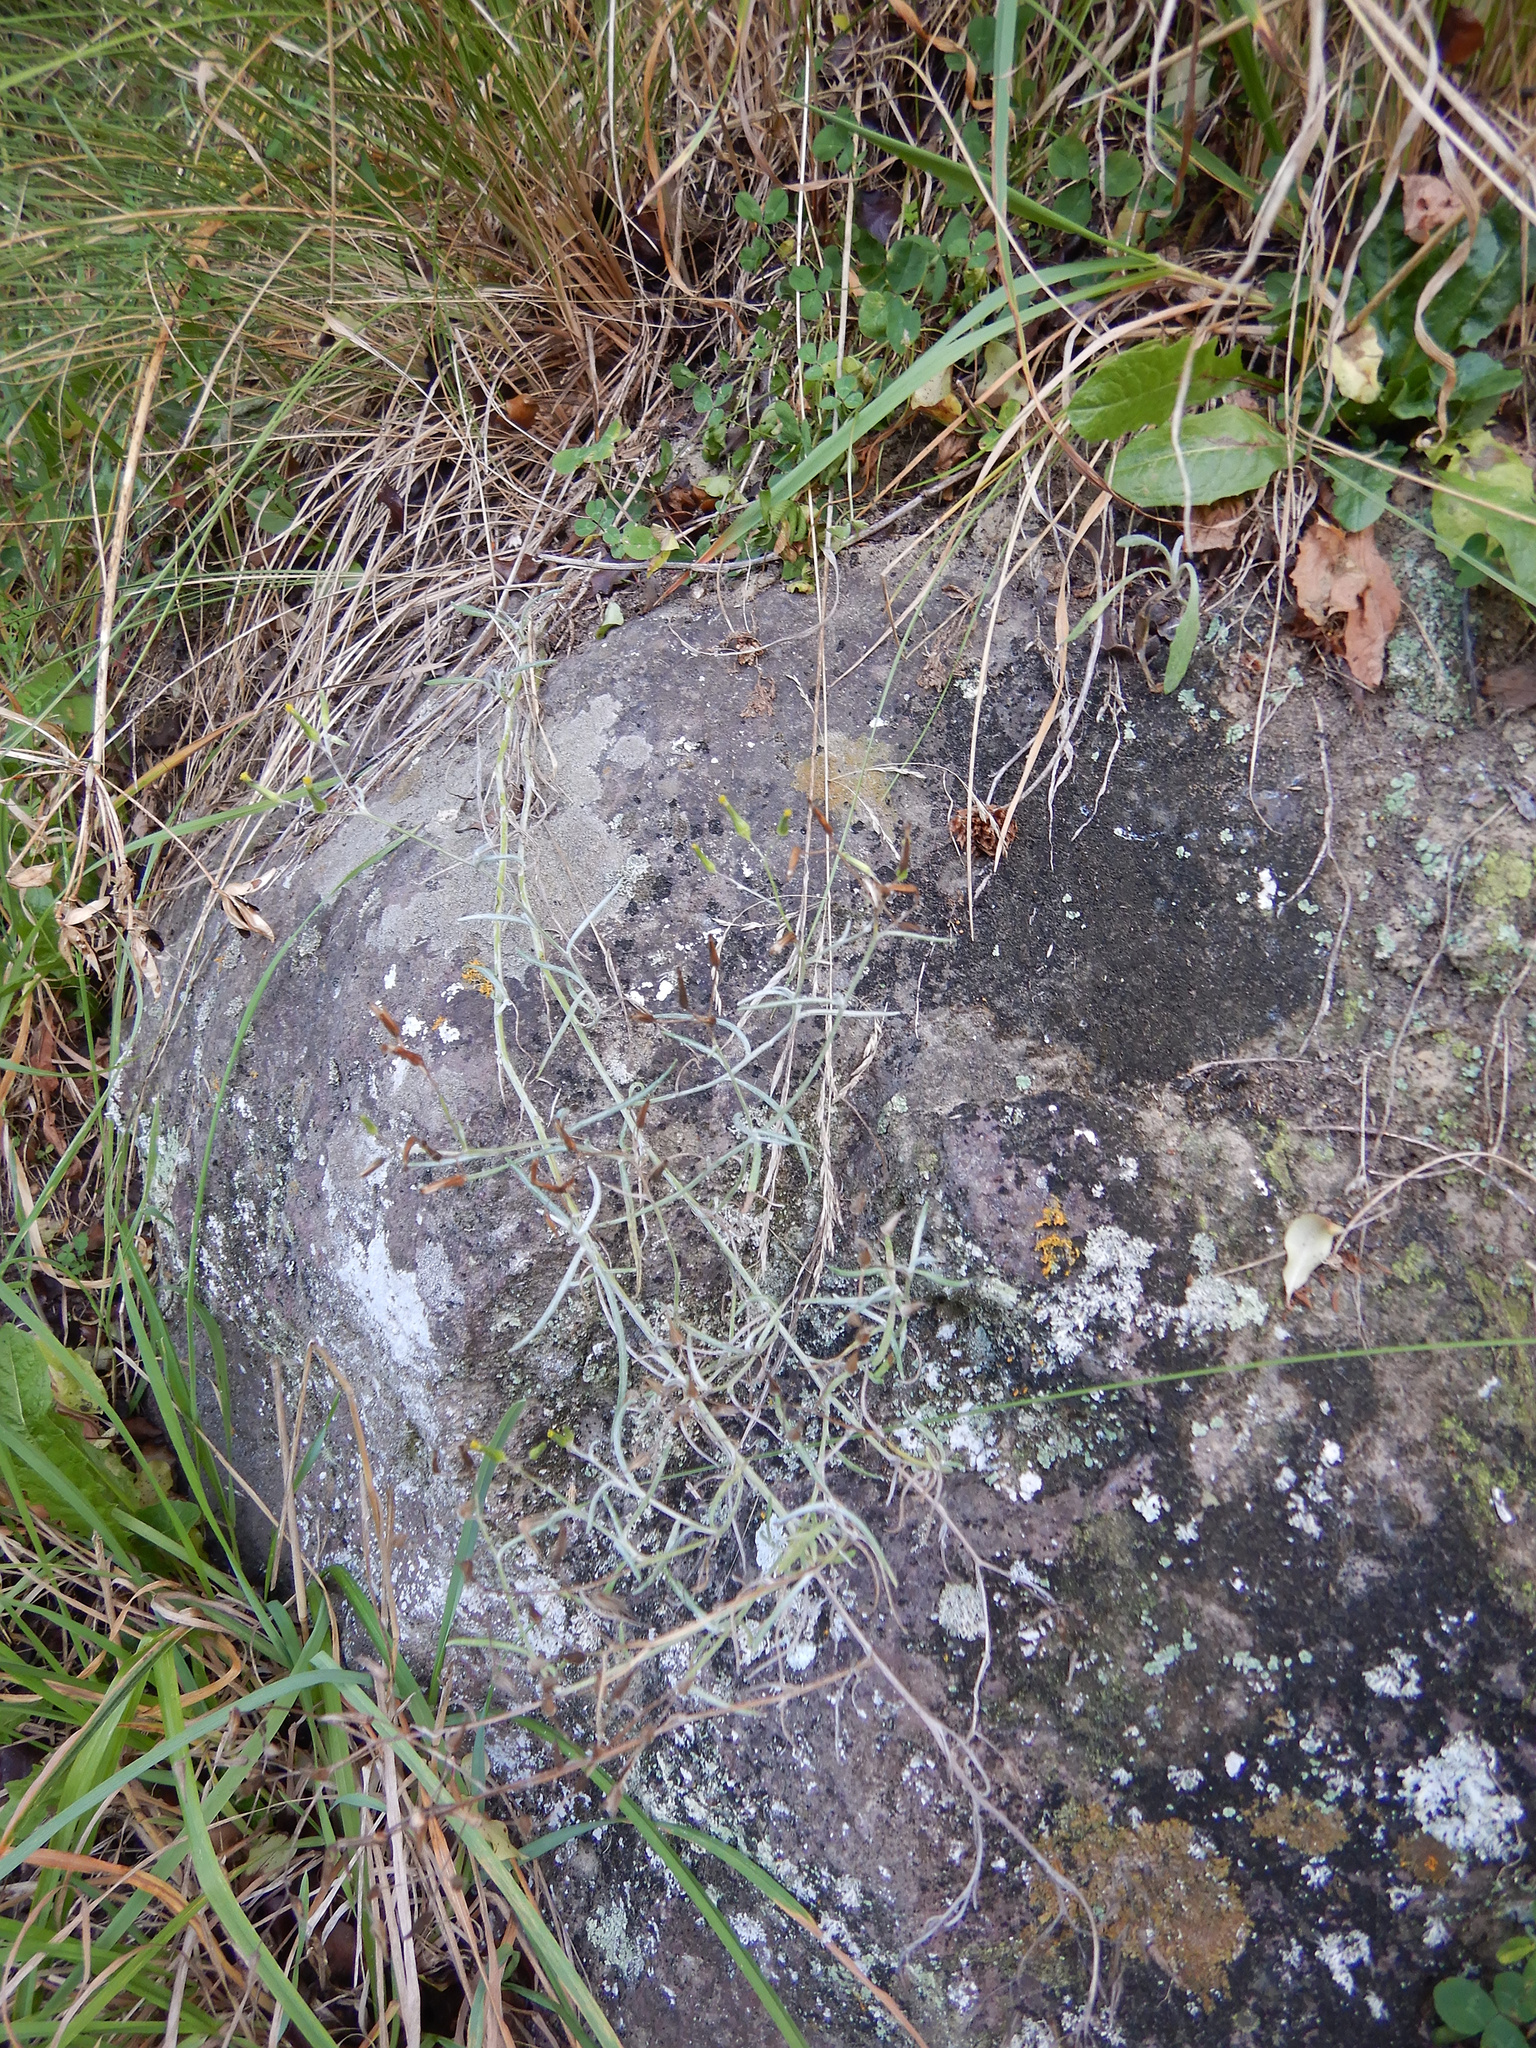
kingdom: Plantae
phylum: Tracheophyta
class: Magnoliopsida
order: Asterales
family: Asteraceae
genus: Senecio
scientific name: Senecio quadridentatus
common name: Cotton fireweed
